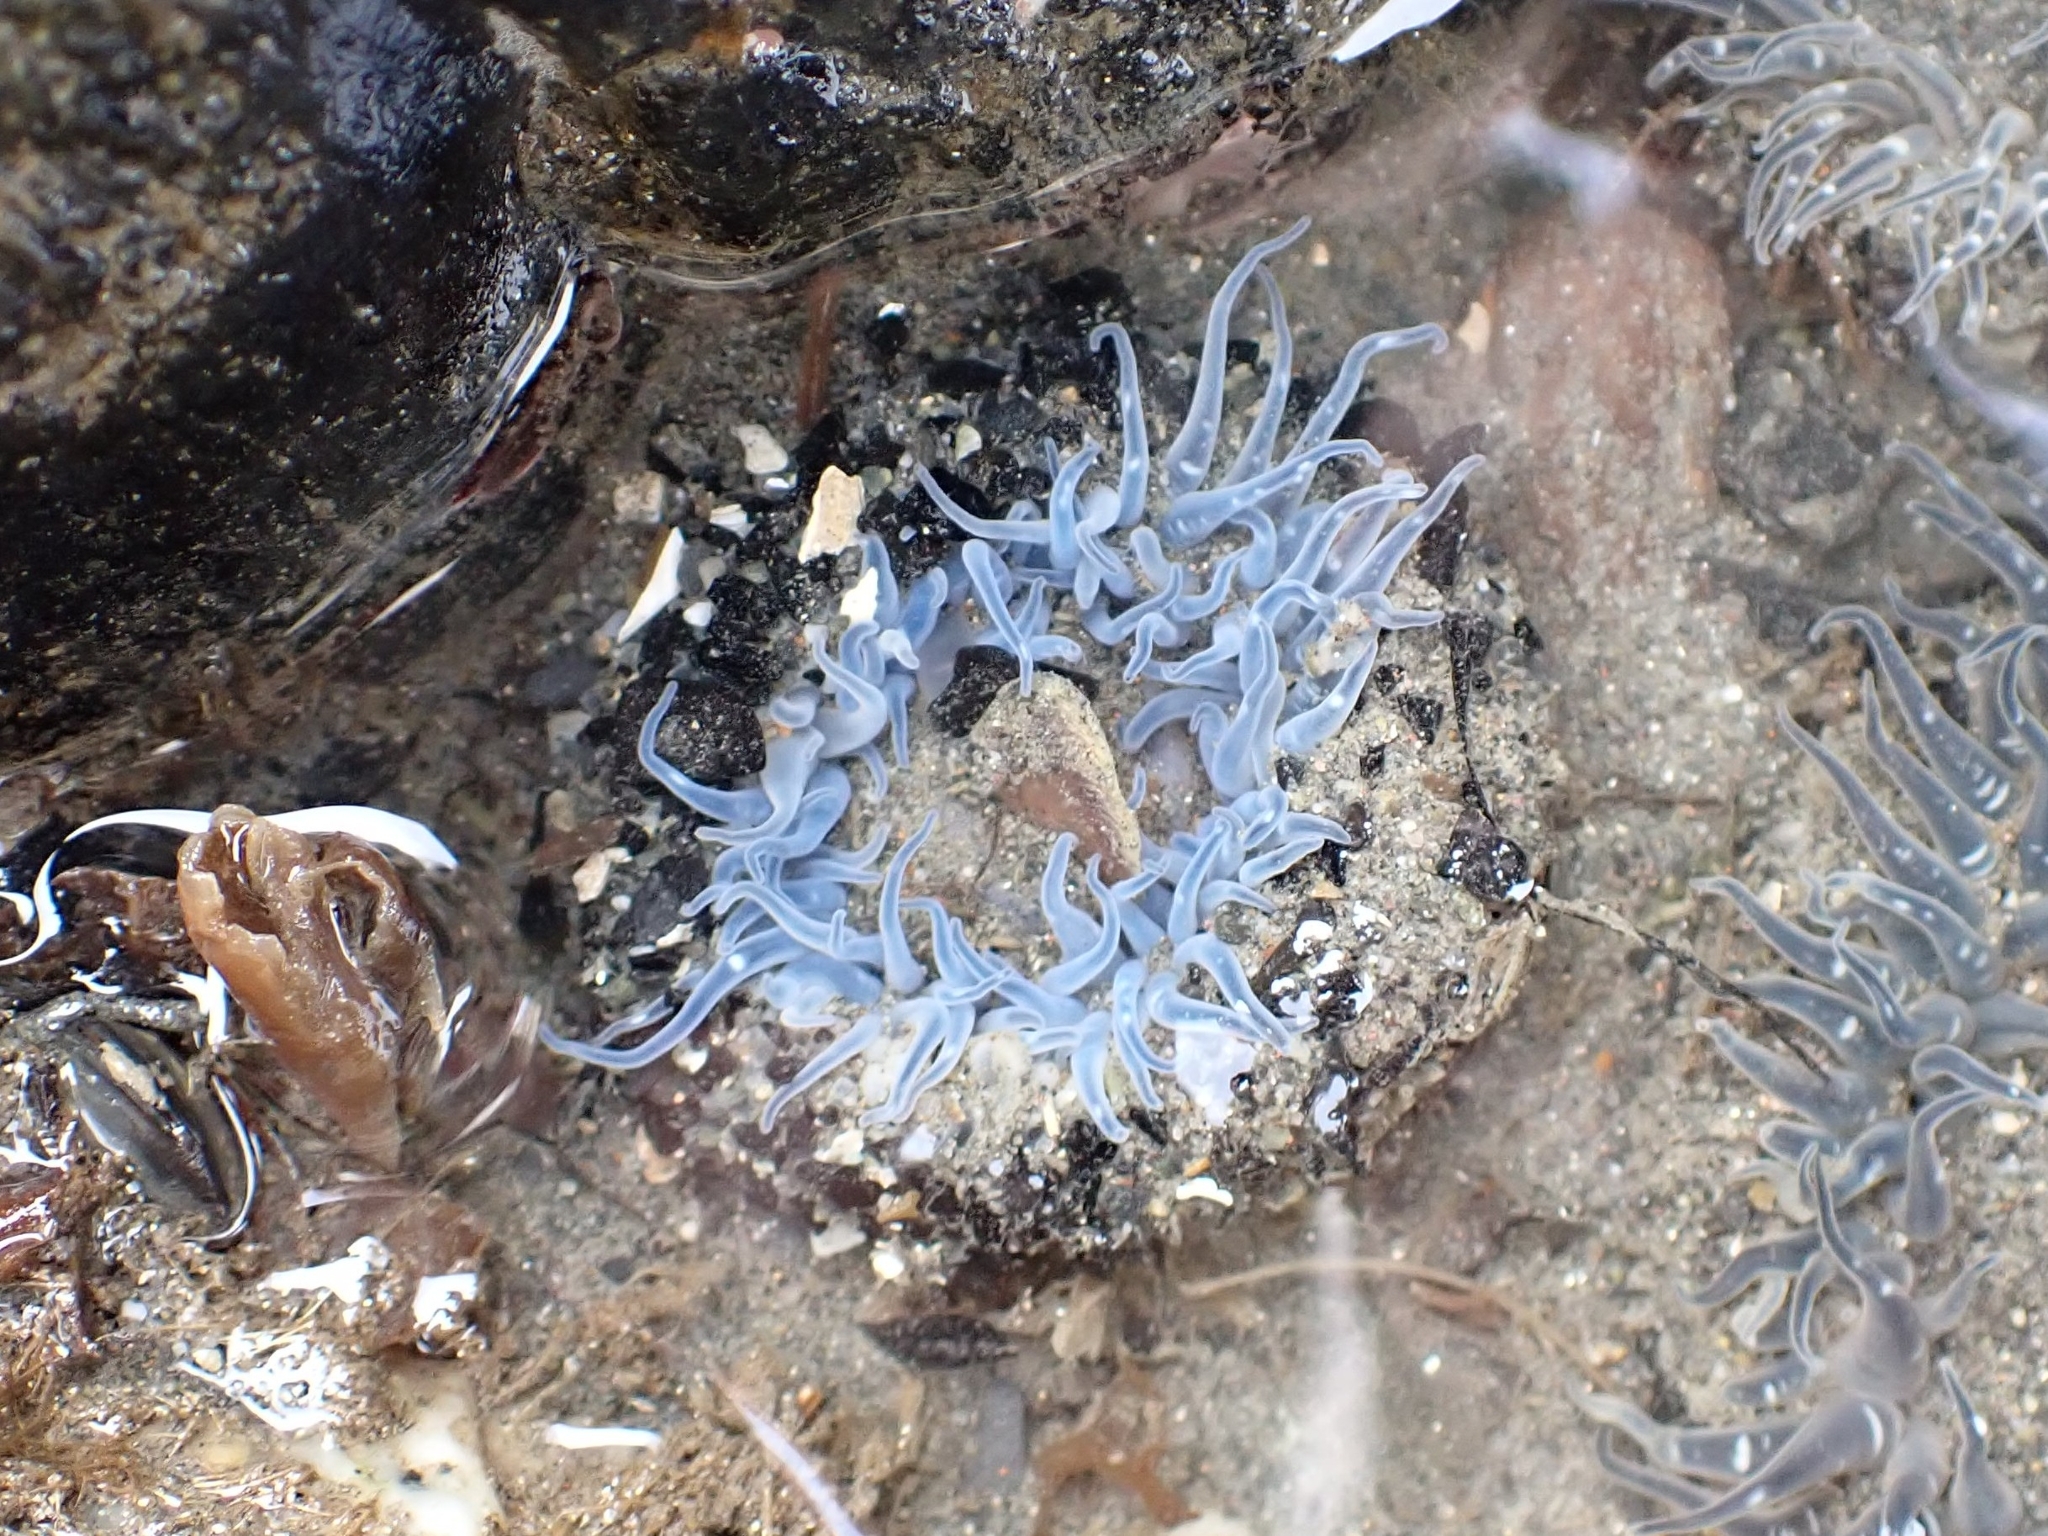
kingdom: Animalia
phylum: Cnidaria
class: Anthozoa
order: Actiniaria
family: Actiniidae
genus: Anthopleura
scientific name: Anthopleura artemisia
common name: Buried sea anemone
